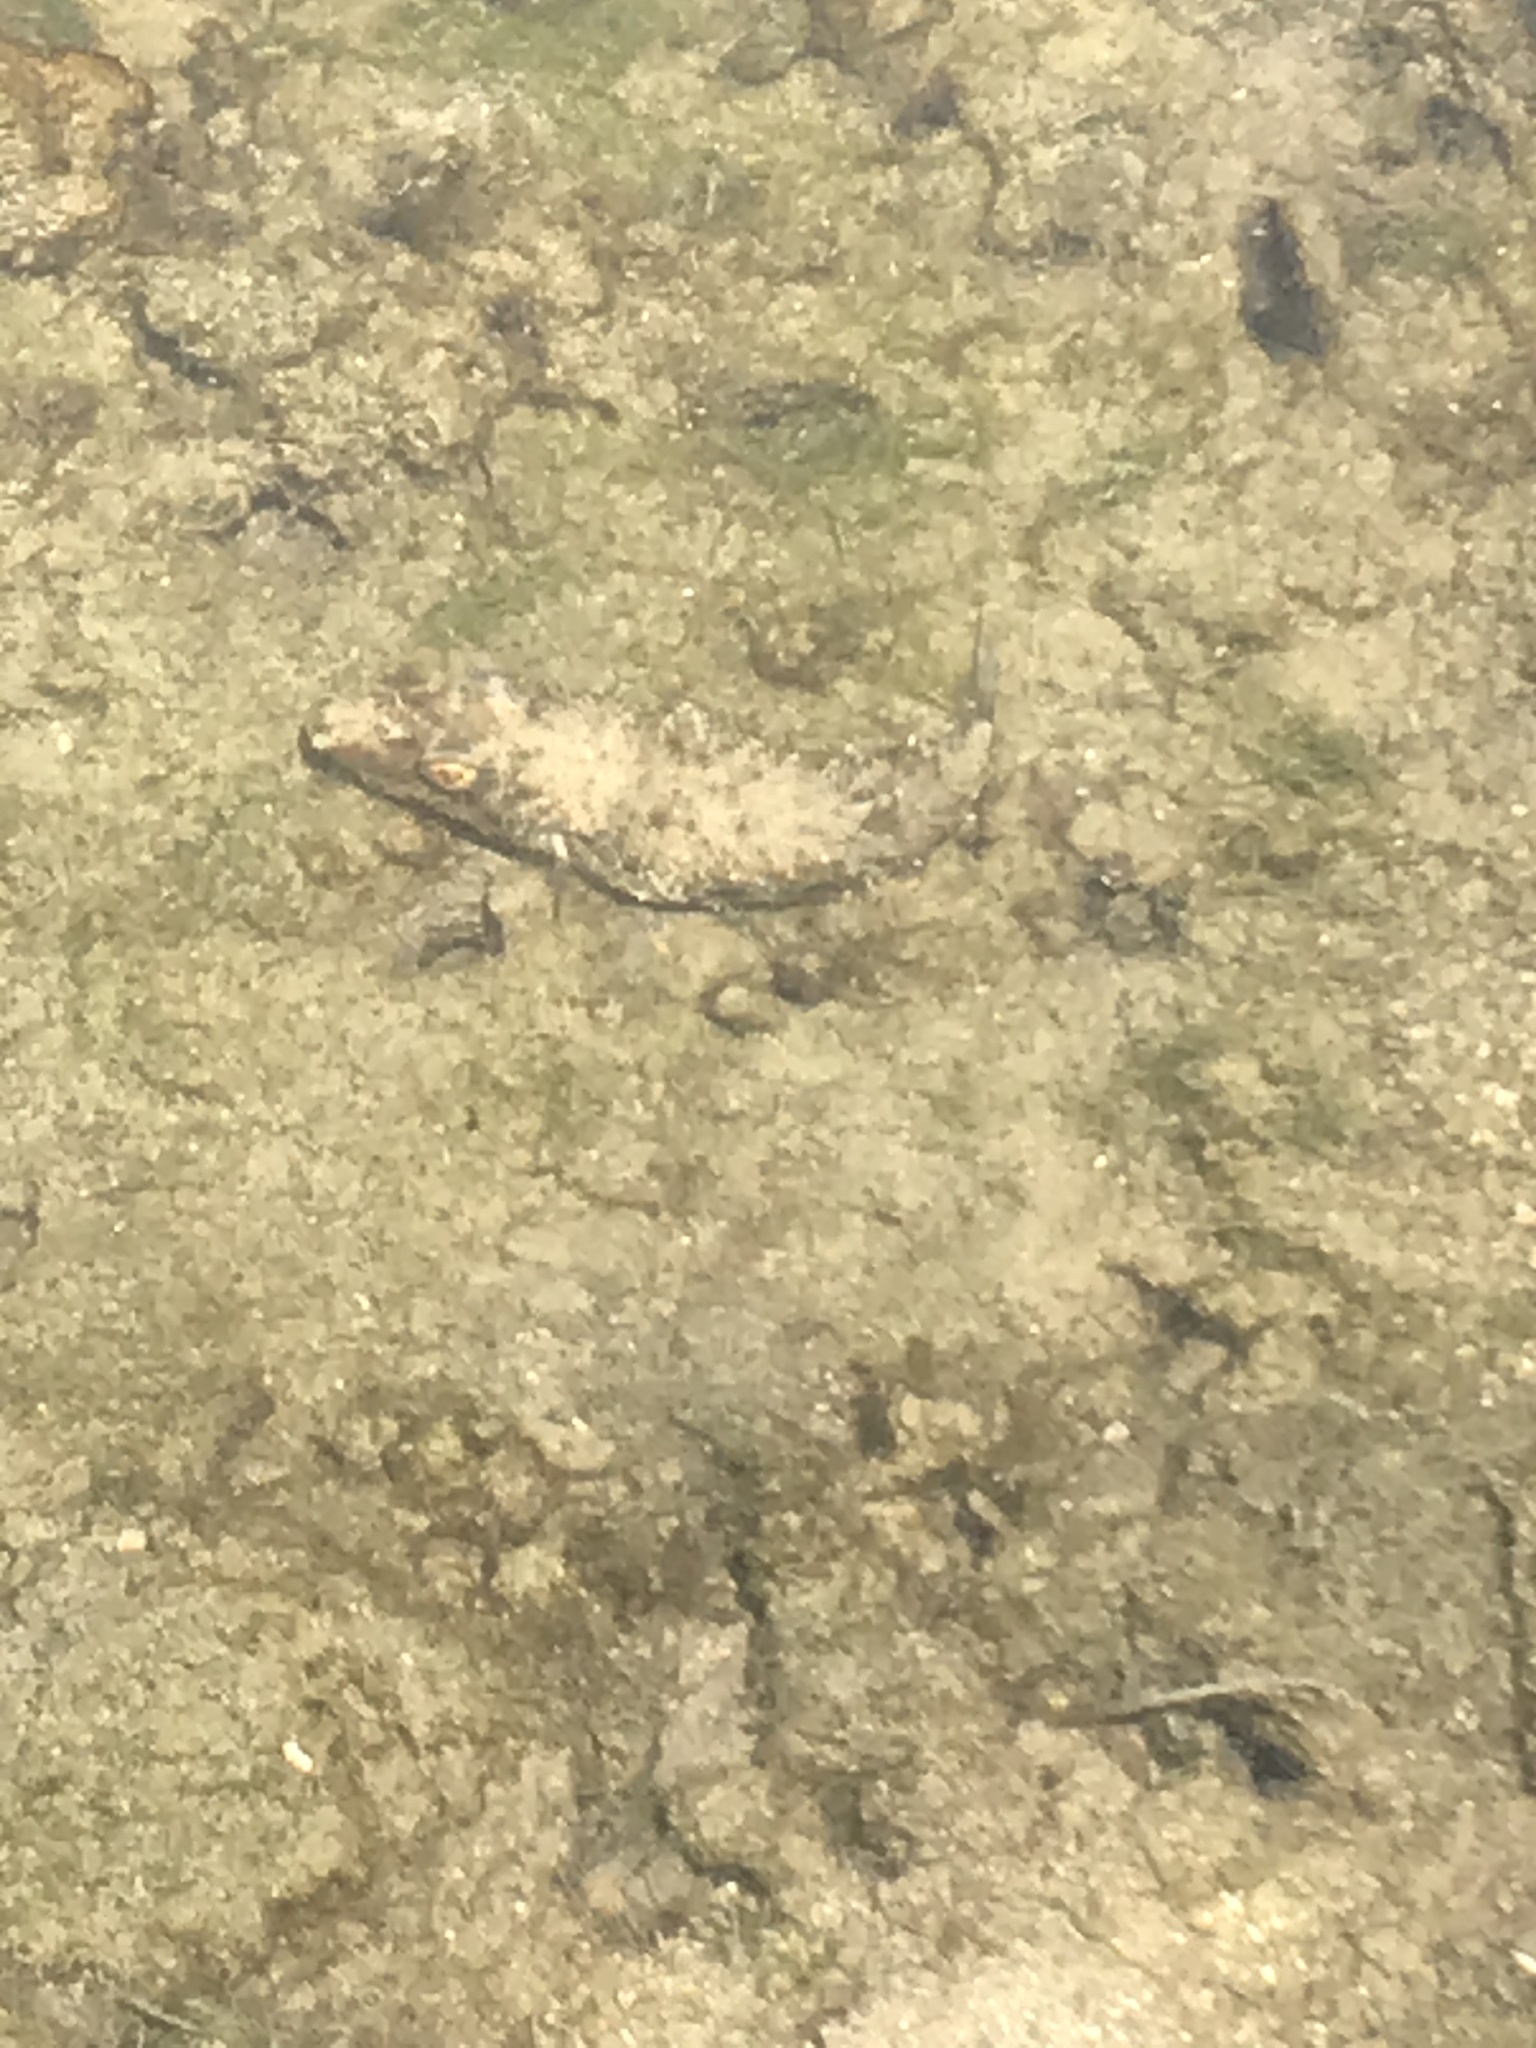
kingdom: Animalia
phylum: Chordata
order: Tetraodontiformes
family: Tetraodontidae
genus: Sphoeroides
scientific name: Sphoeroides spengleri
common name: Bandtail puffer
